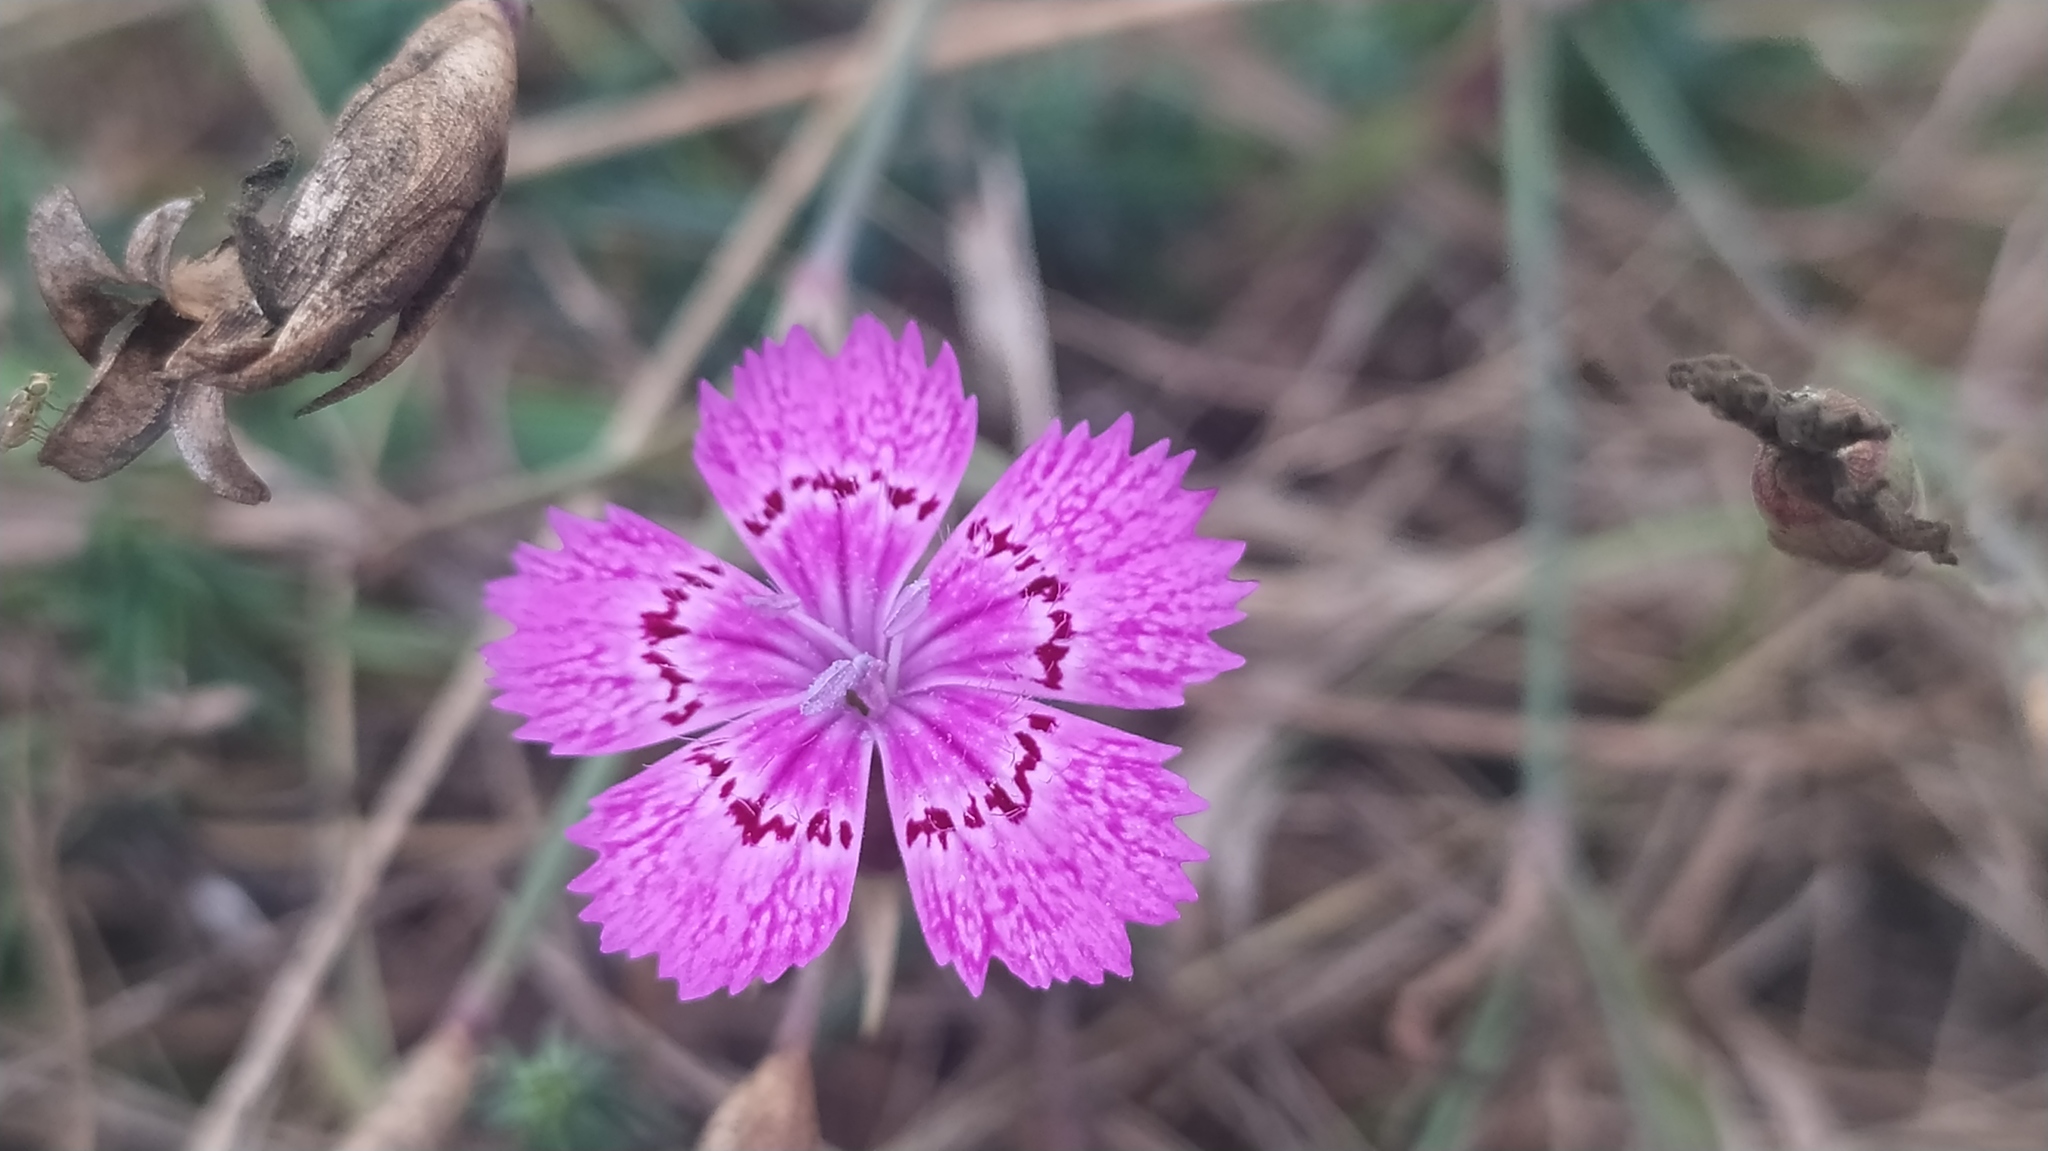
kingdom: Plantae
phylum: Tracheophyta
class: Magnoliopsida
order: Caryophyllales
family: Caryophyllaceae
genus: Dianthus
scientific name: Dianthus chinensis
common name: Rainbow pink
